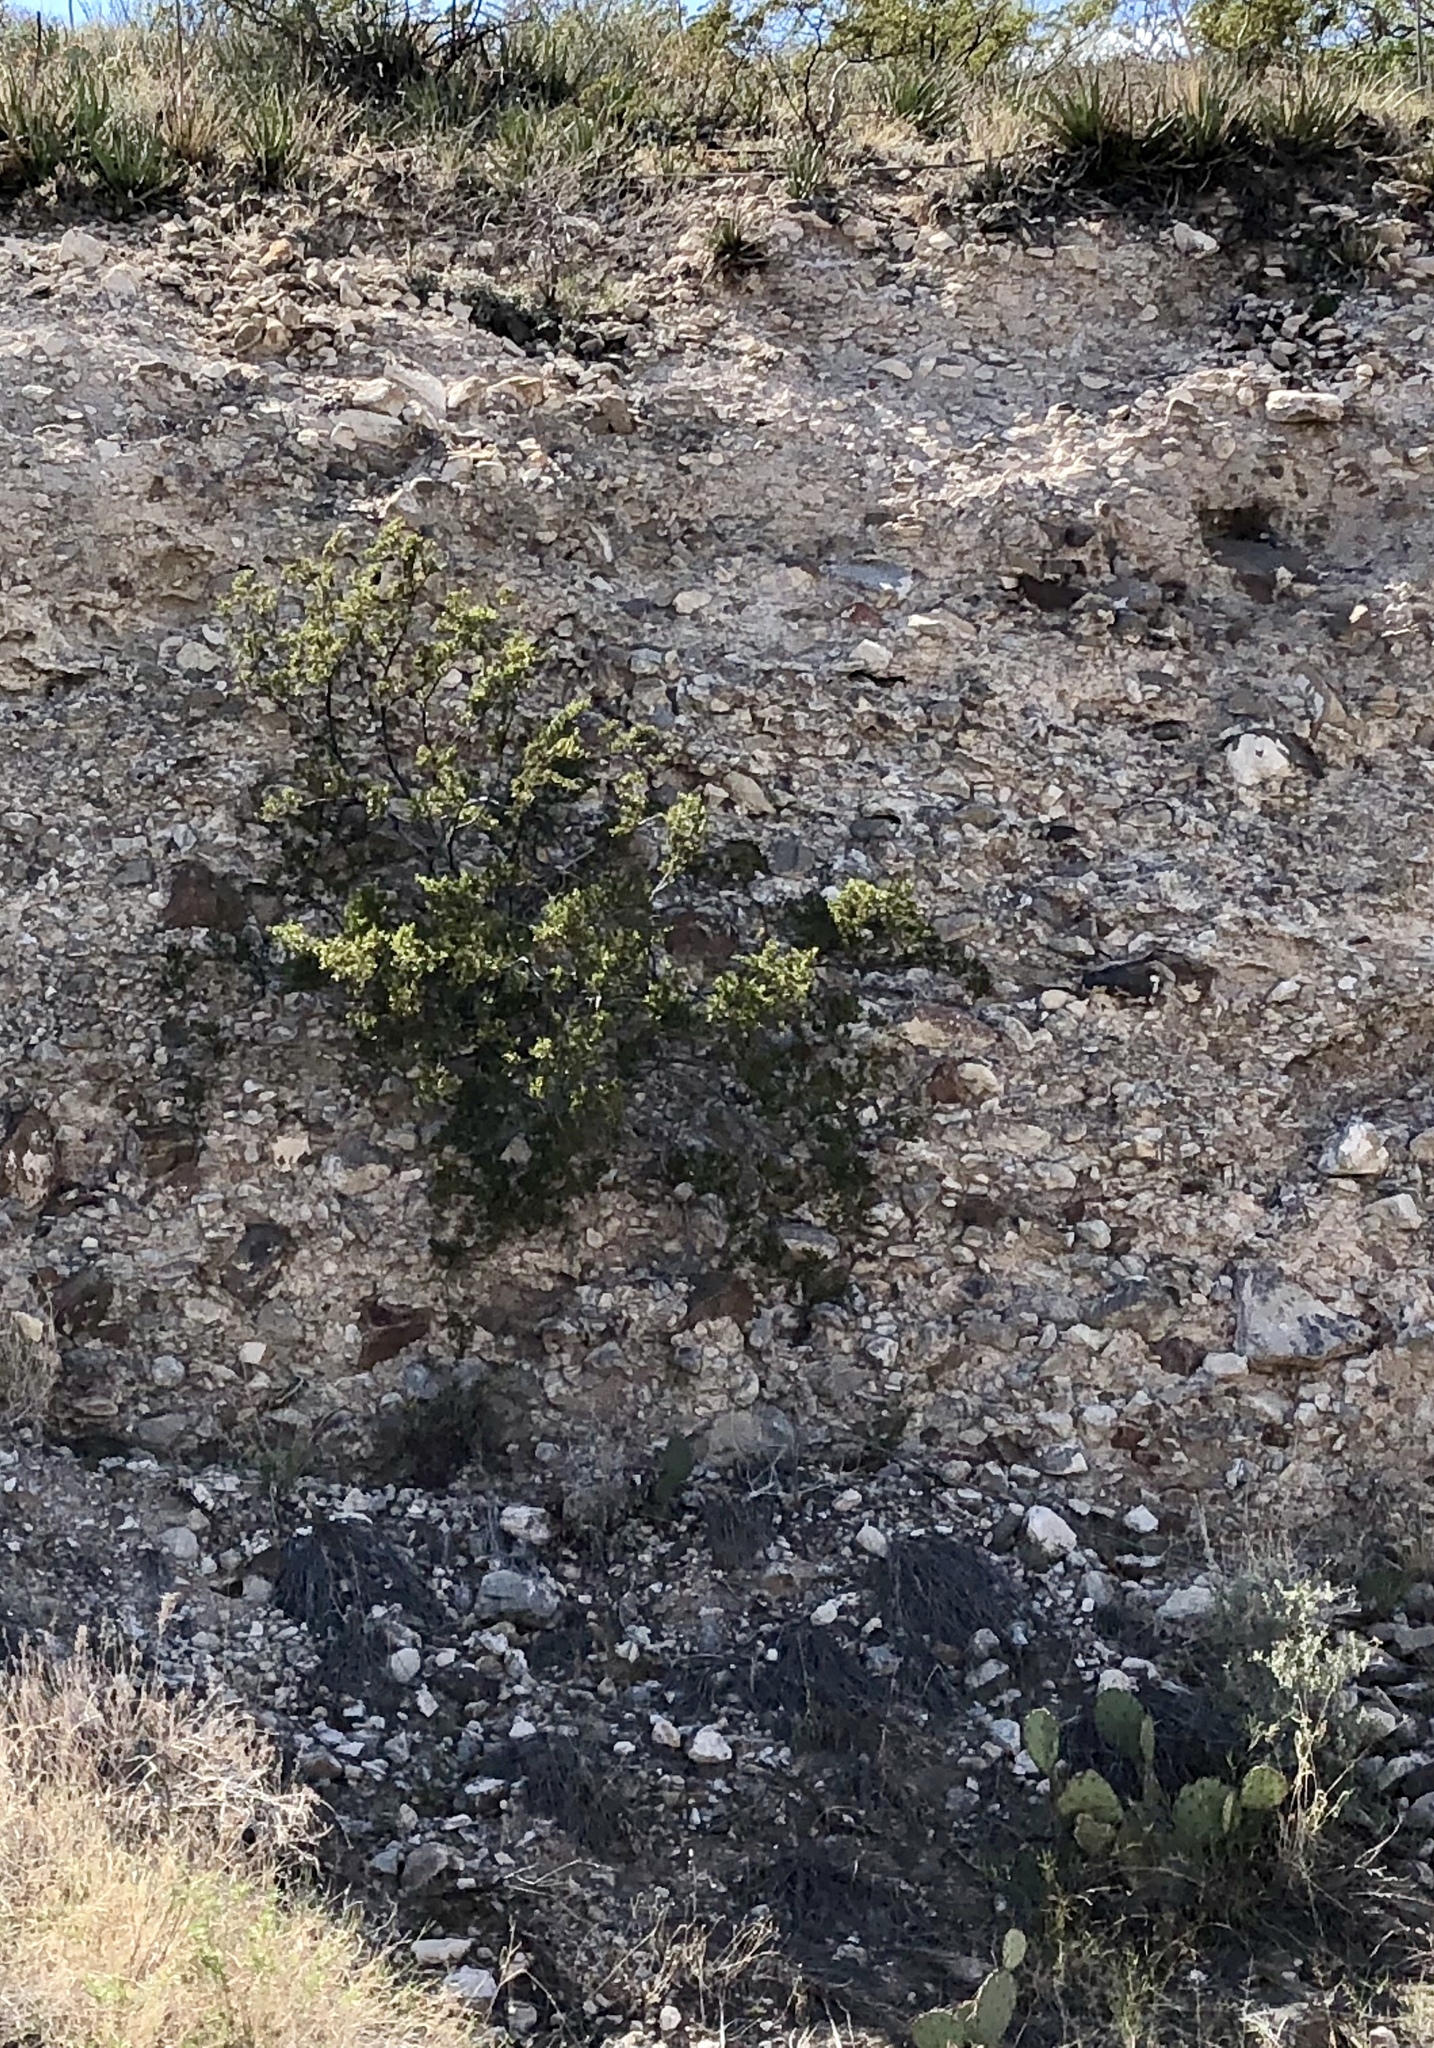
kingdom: Plantae
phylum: Tracheophyta
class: Magnoliopsida
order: Zygophyllales
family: Zygophyllaceae
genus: Larrea
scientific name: Larrea tridentata
